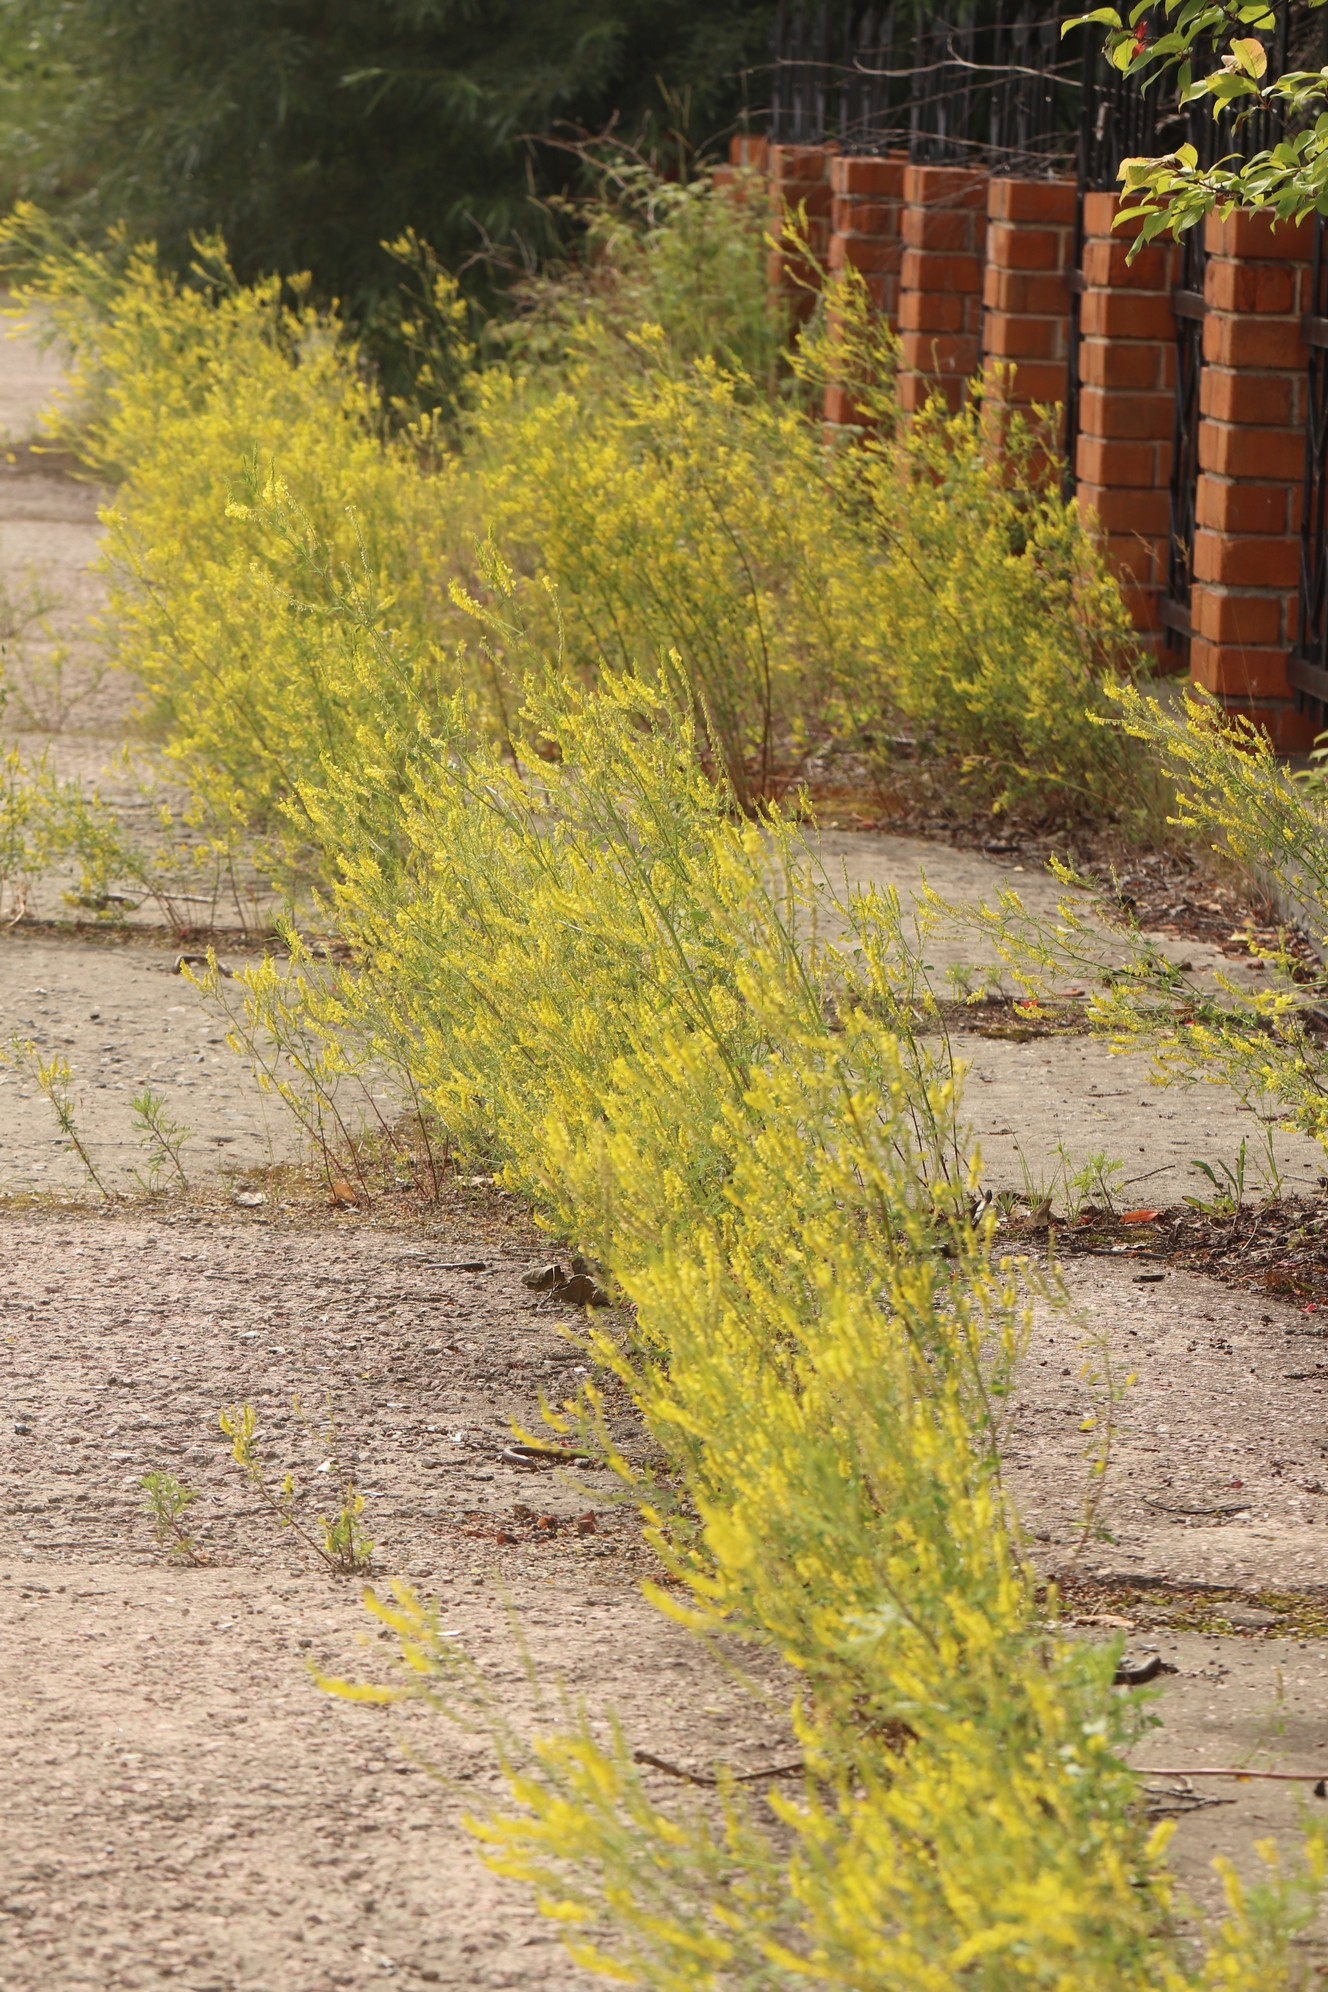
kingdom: Plantae
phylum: Tracheophyta
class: Magnoliopsida
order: Fabales
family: Fabaceae
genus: Melilotus
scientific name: Melilotus officinalis
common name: Sweetclover
